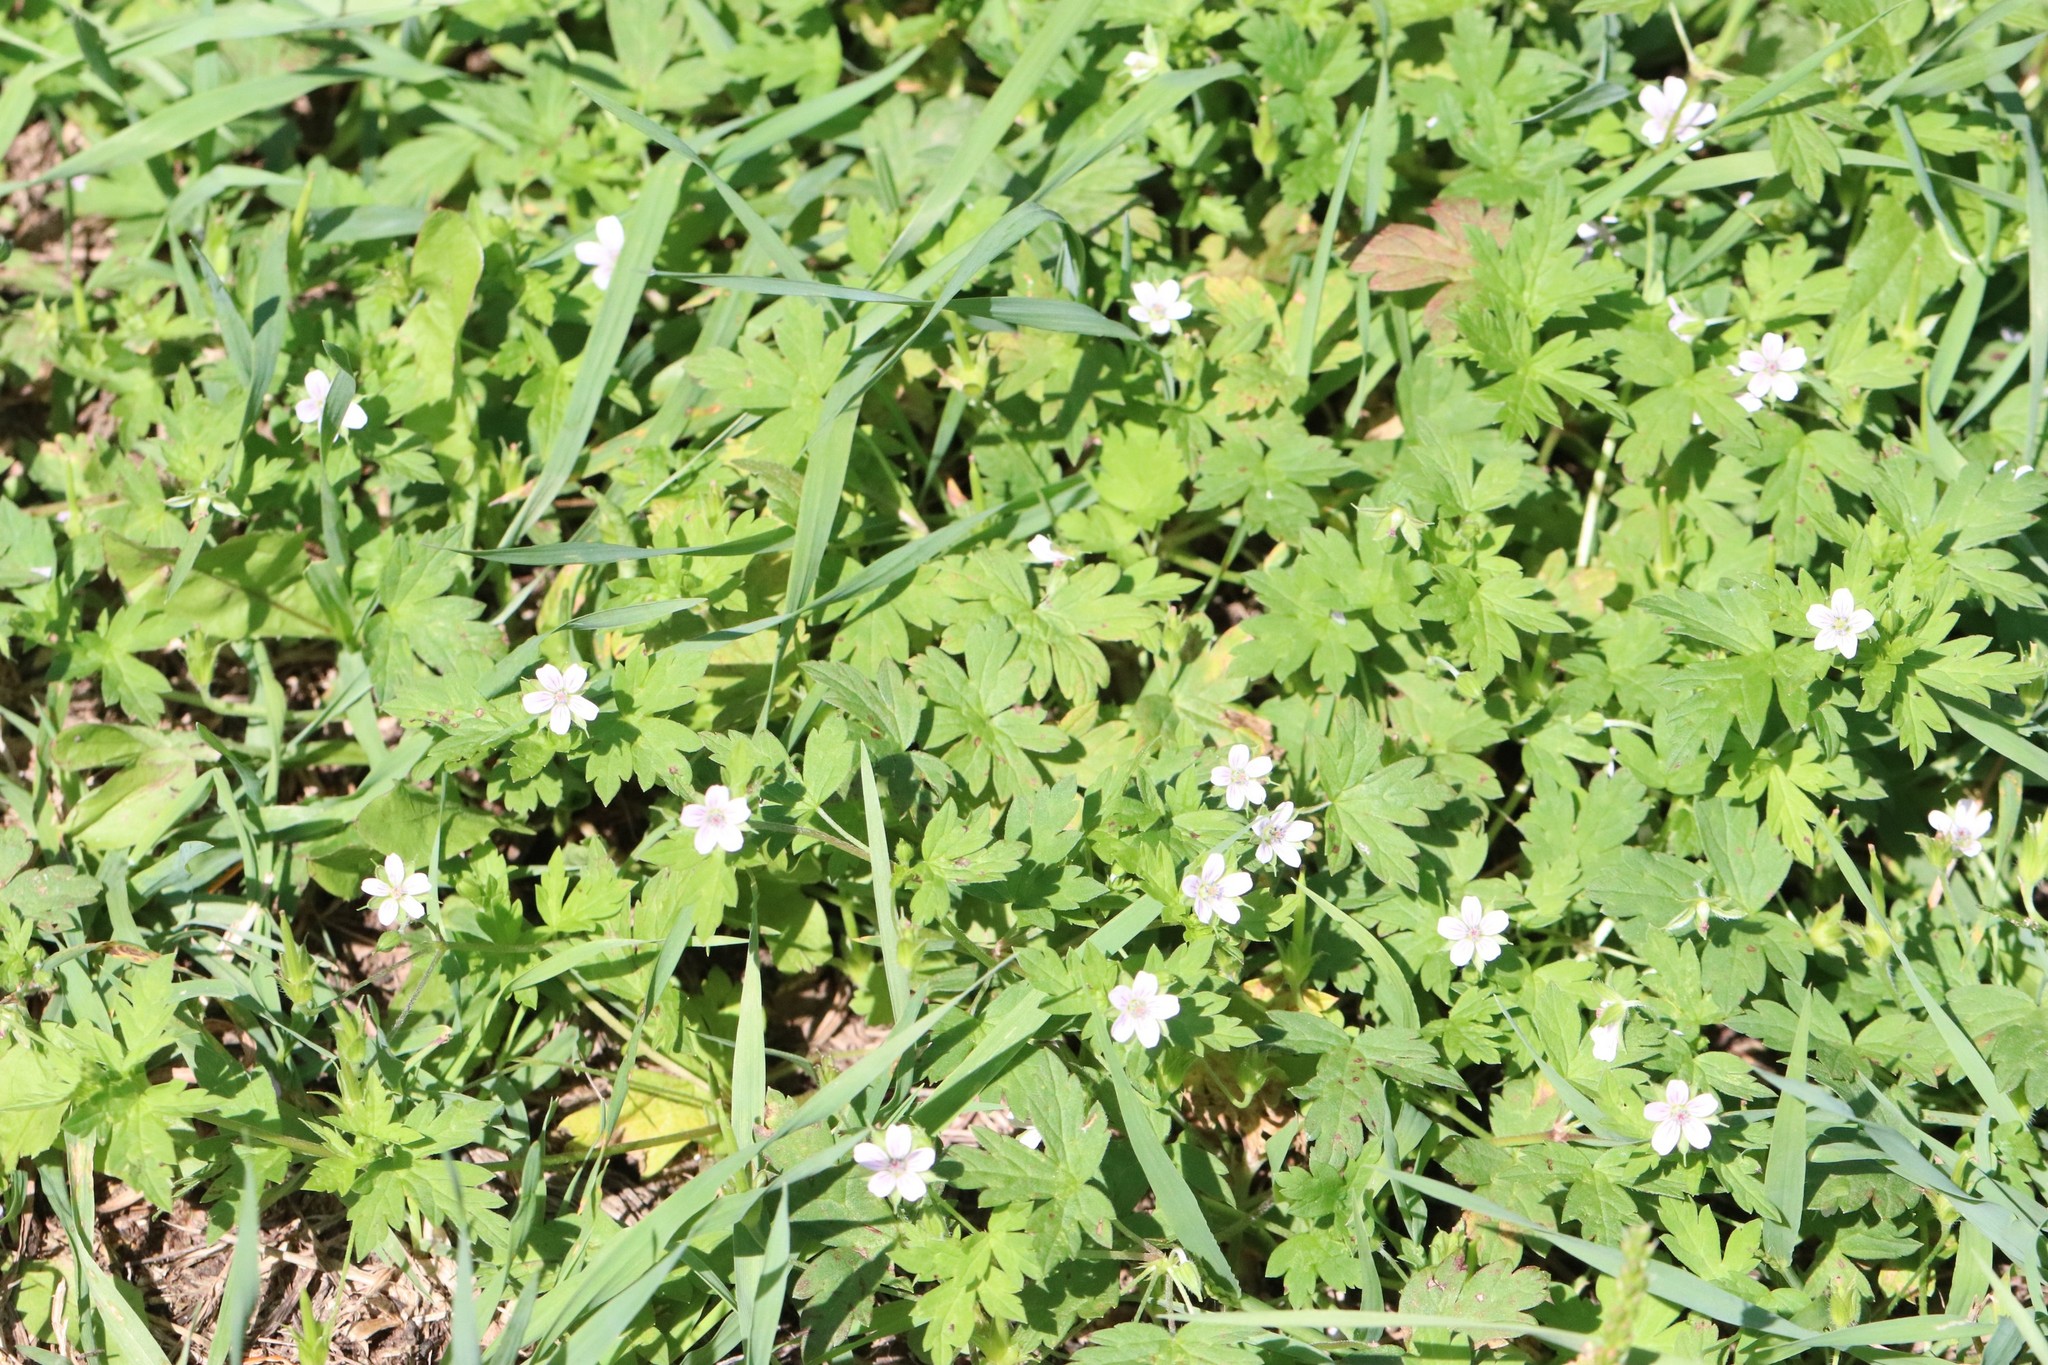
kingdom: Plantae
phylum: Tracheophyta
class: Magnoliopsida
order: Geraniales
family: Geraniaceae
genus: Geranium
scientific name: Geranium sibiricum
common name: Siberian crane's-bill
